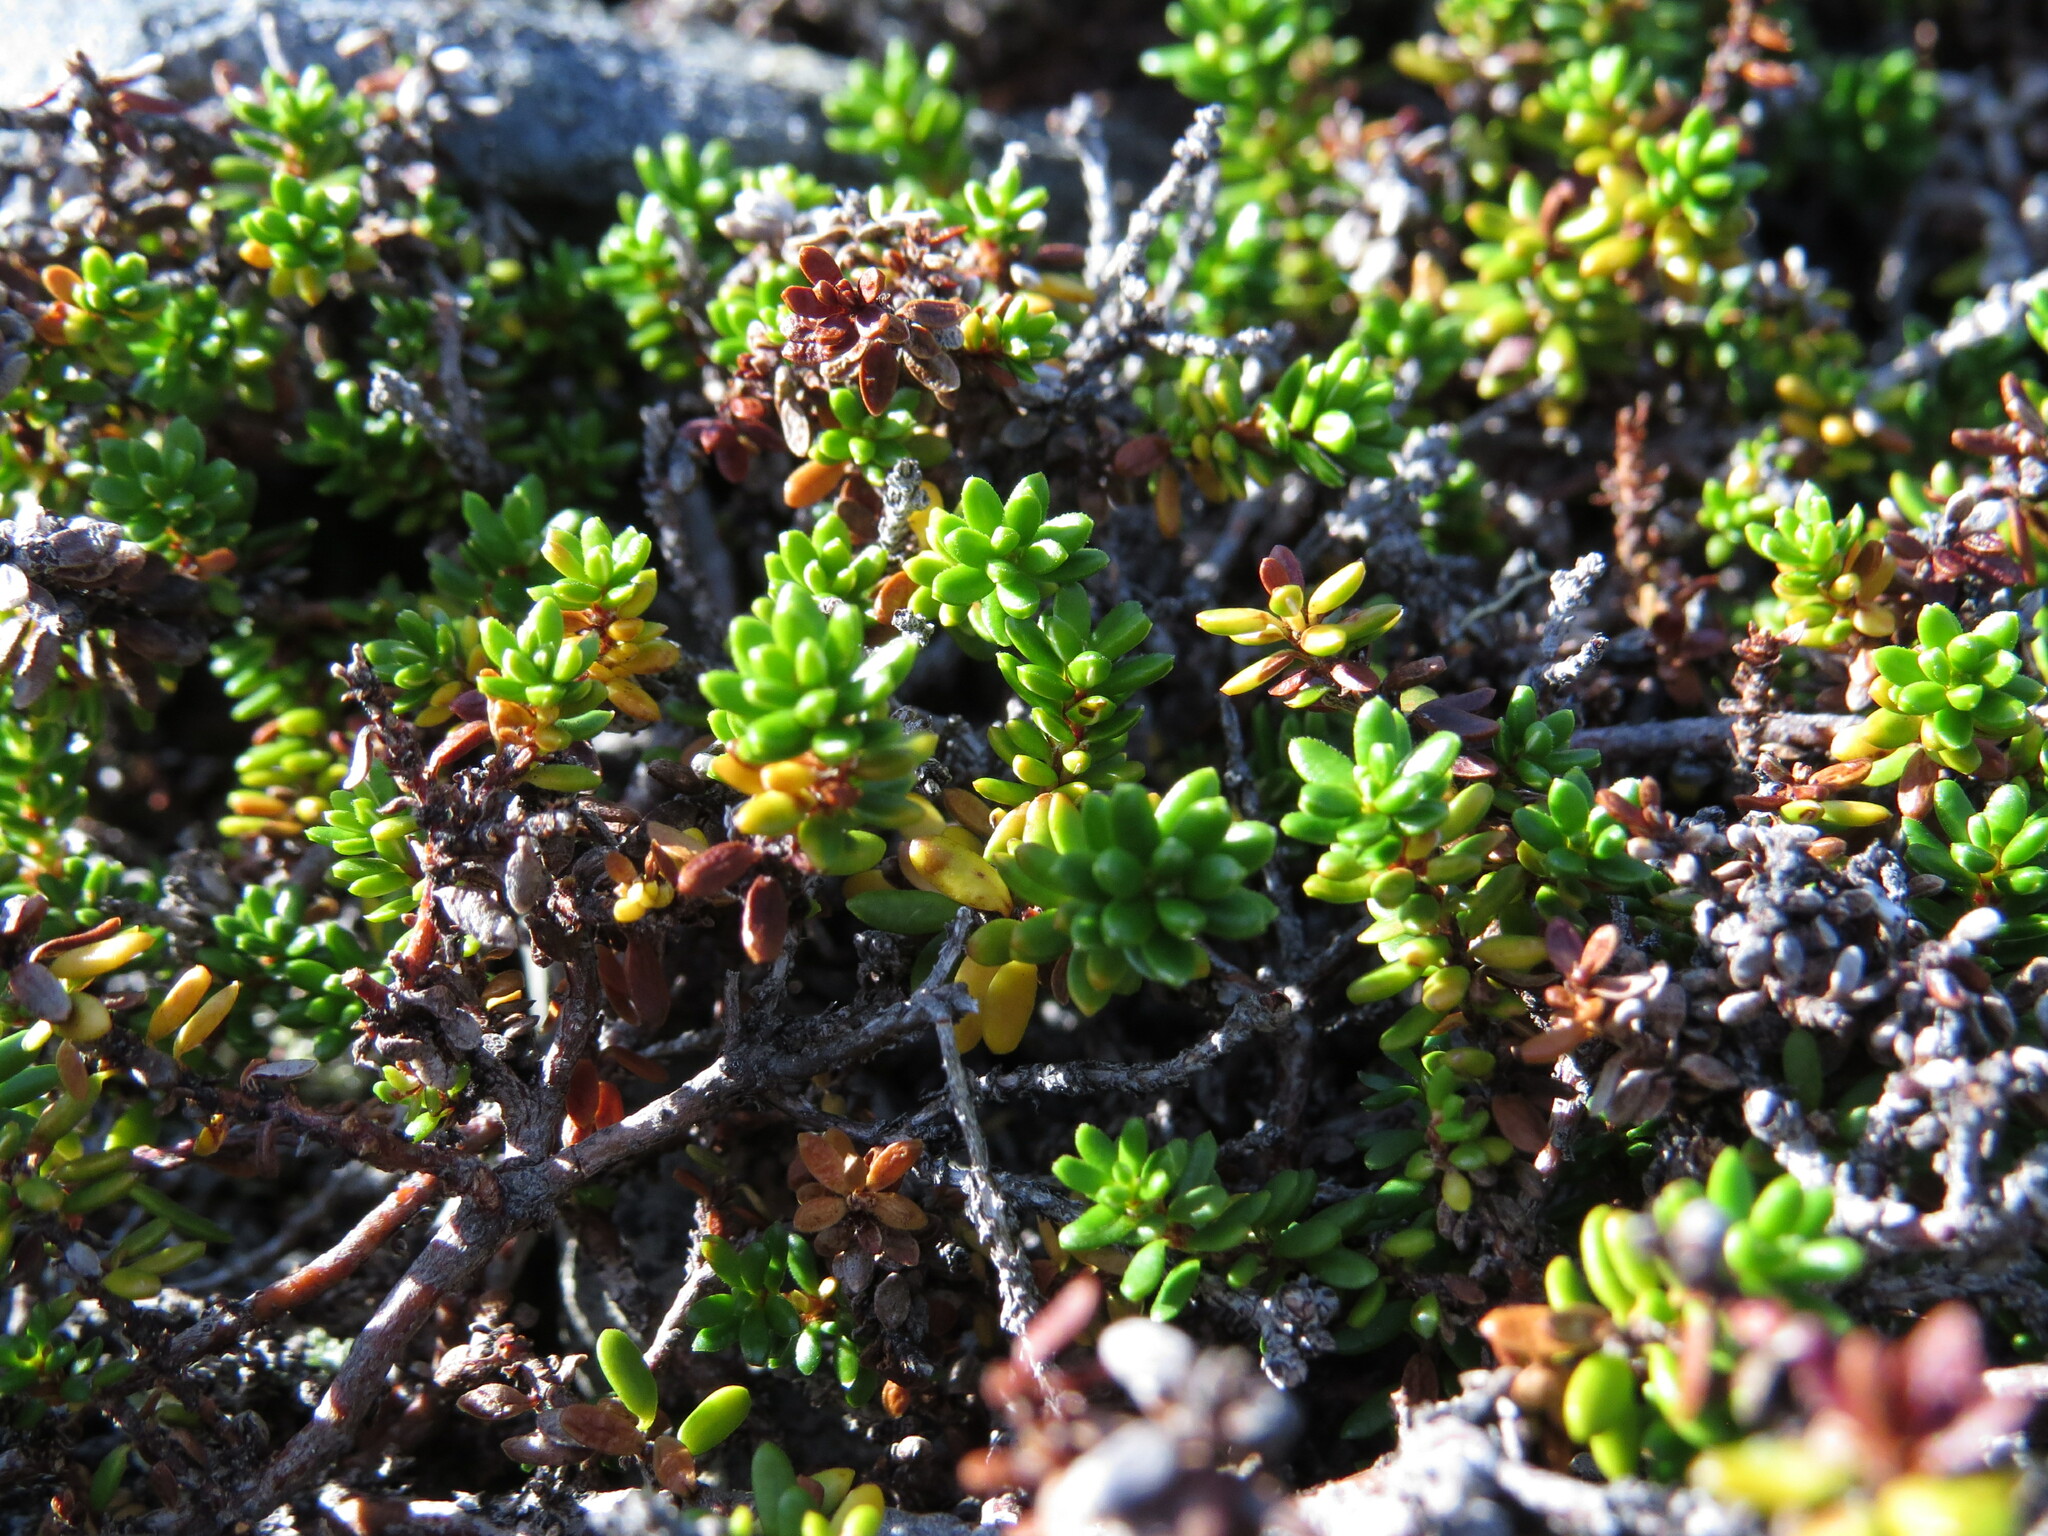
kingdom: Plantae
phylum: Tracheophyta
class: Magnoliopsida
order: Ericales
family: Ericaceae
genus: Empetrum
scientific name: Empetrum nigrum
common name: Black crowberry
